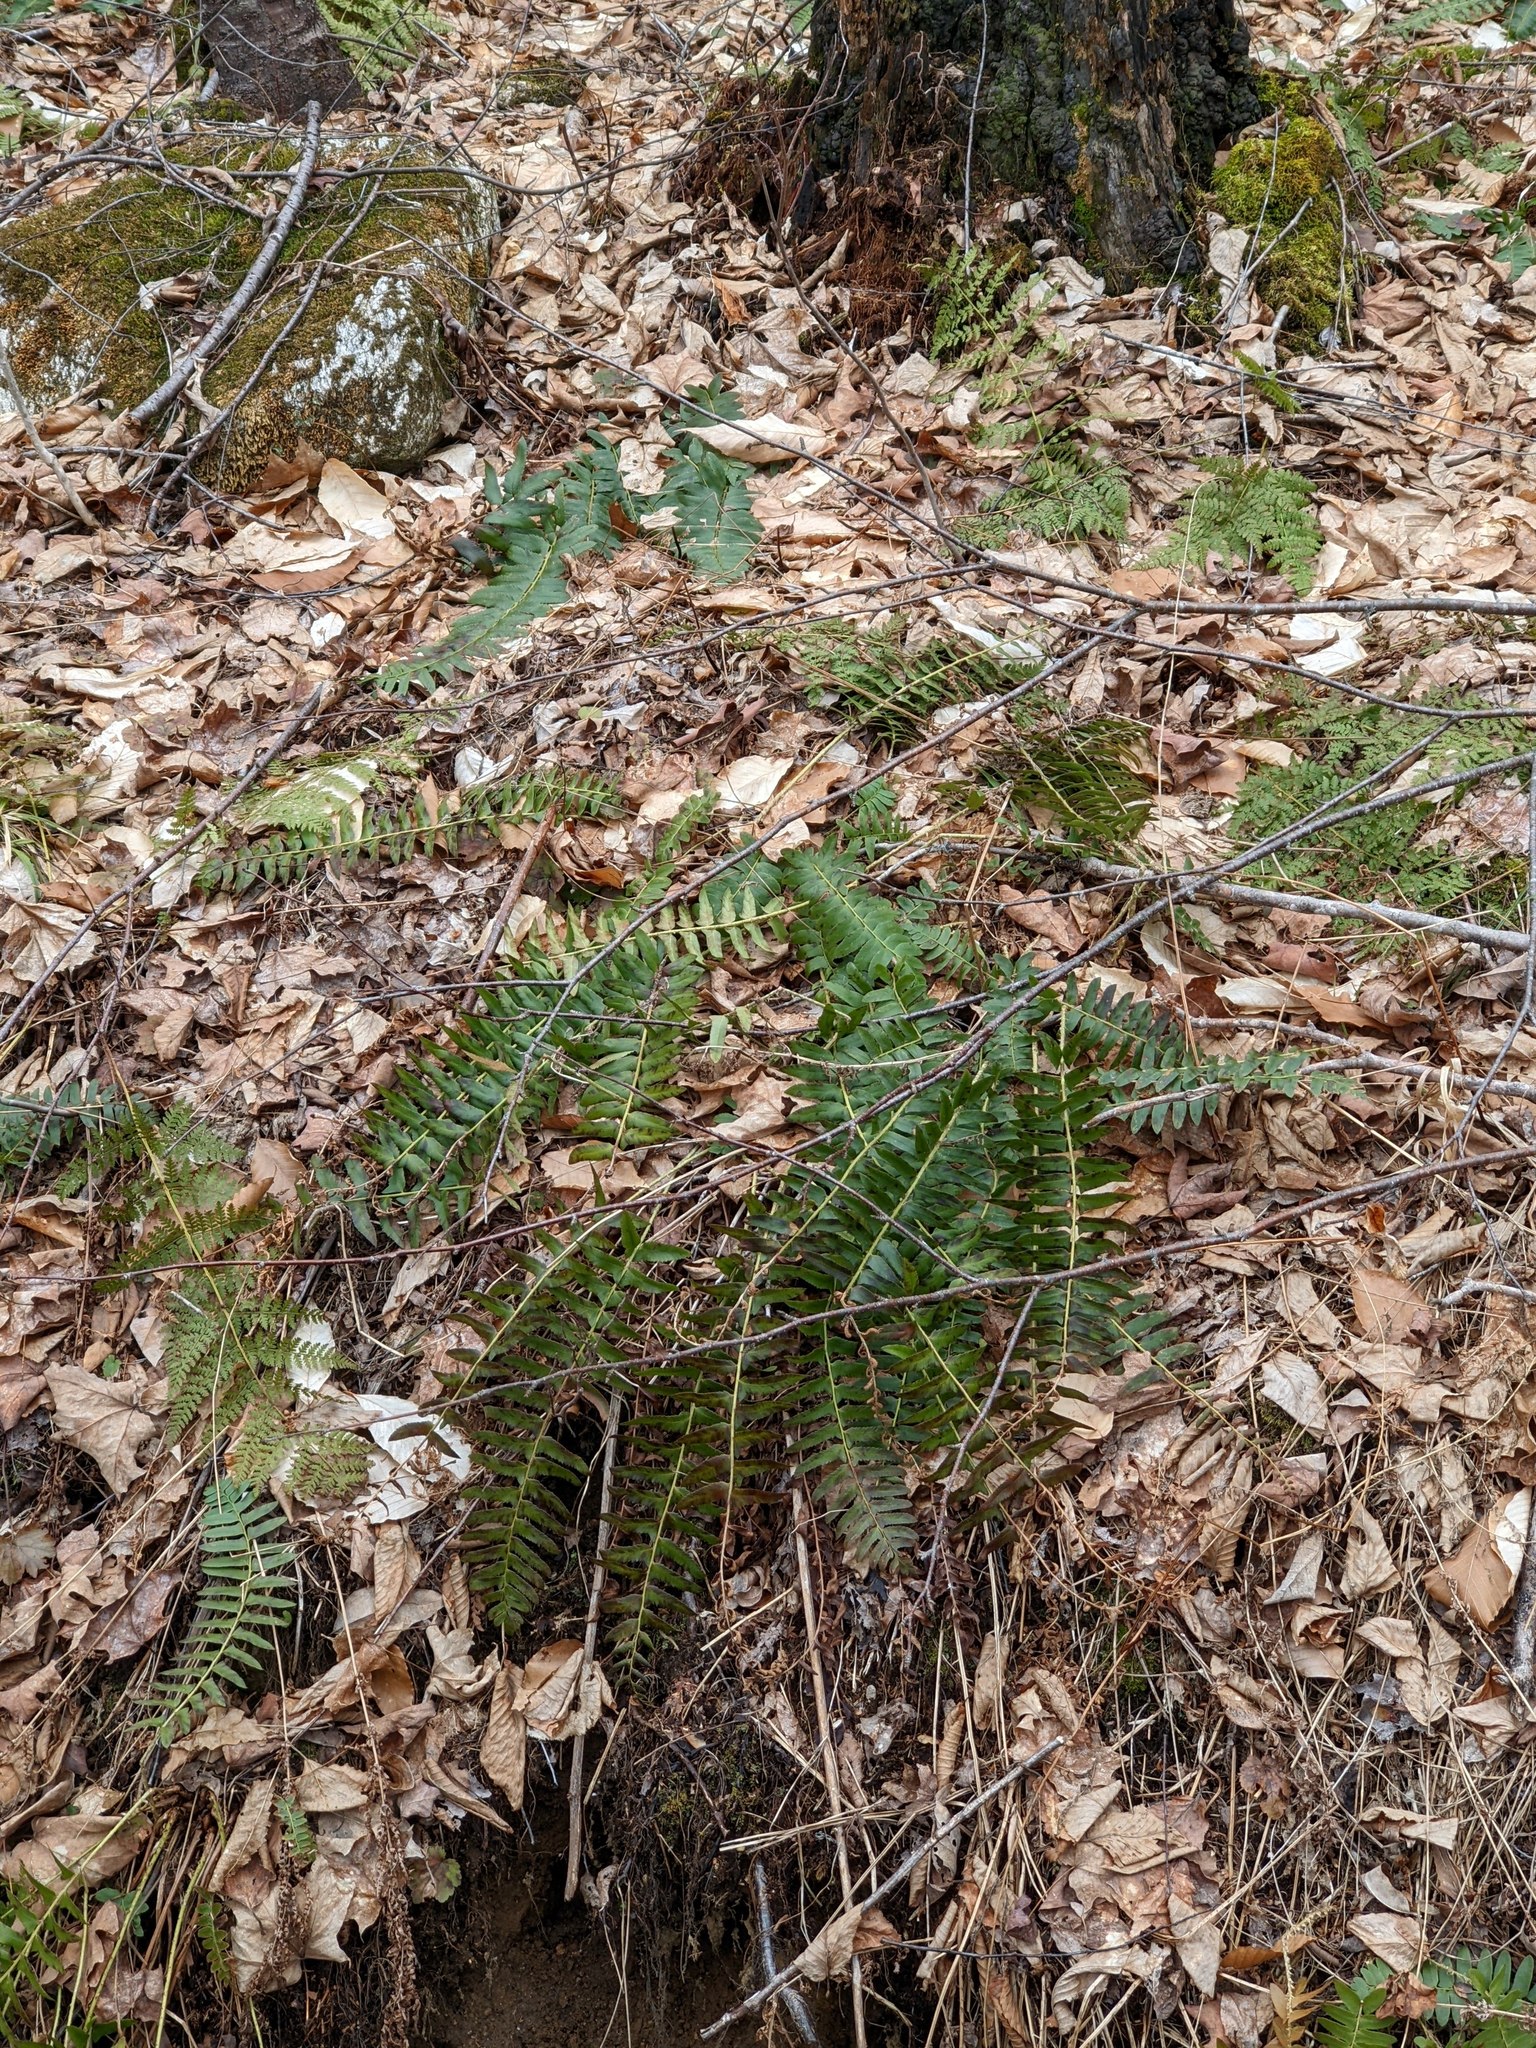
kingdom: Plantae
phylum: Tracheophyta
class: Polypodiopsida
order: Polypodiales
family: Dryopteridaceae
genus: Polystichum
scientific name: Polystichum acrostichoides
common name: Christmas fern
